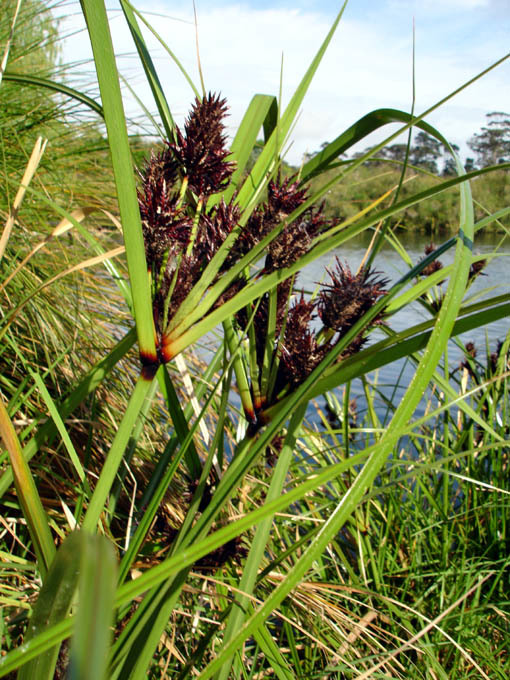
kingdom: Plantae
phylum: Tracheophyta
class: Liliopsida
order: Poales
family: Cyperaceae
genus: Cyperus
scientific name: Cyperus ustulatus
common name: Giant umbrella-sedge
